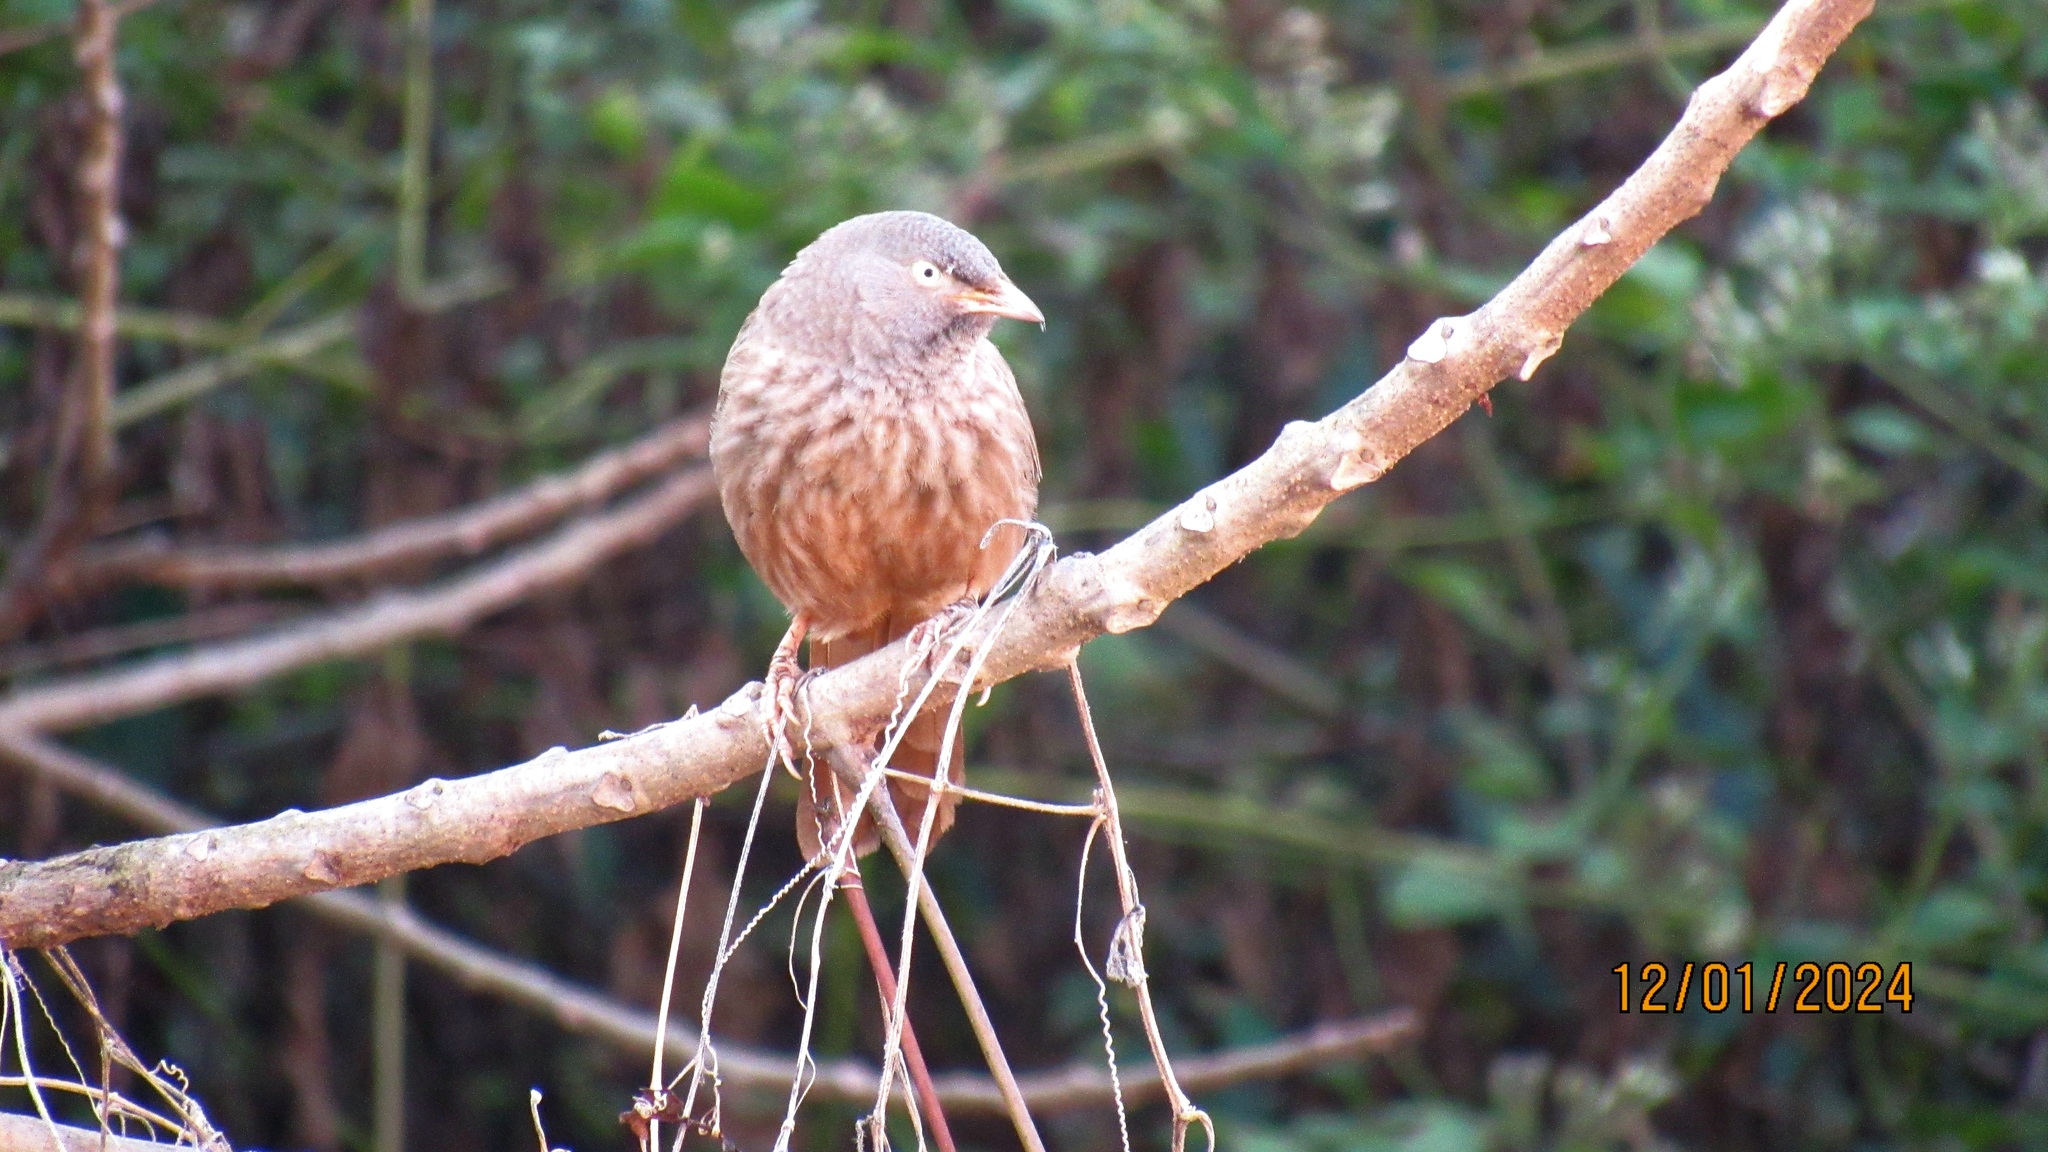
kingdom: Animalia
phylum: Chordata
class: Aves
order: Passeriformes
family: Leiothrichidae
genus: Turdoides
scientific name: Turdoides striata
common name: Jungle babbler
